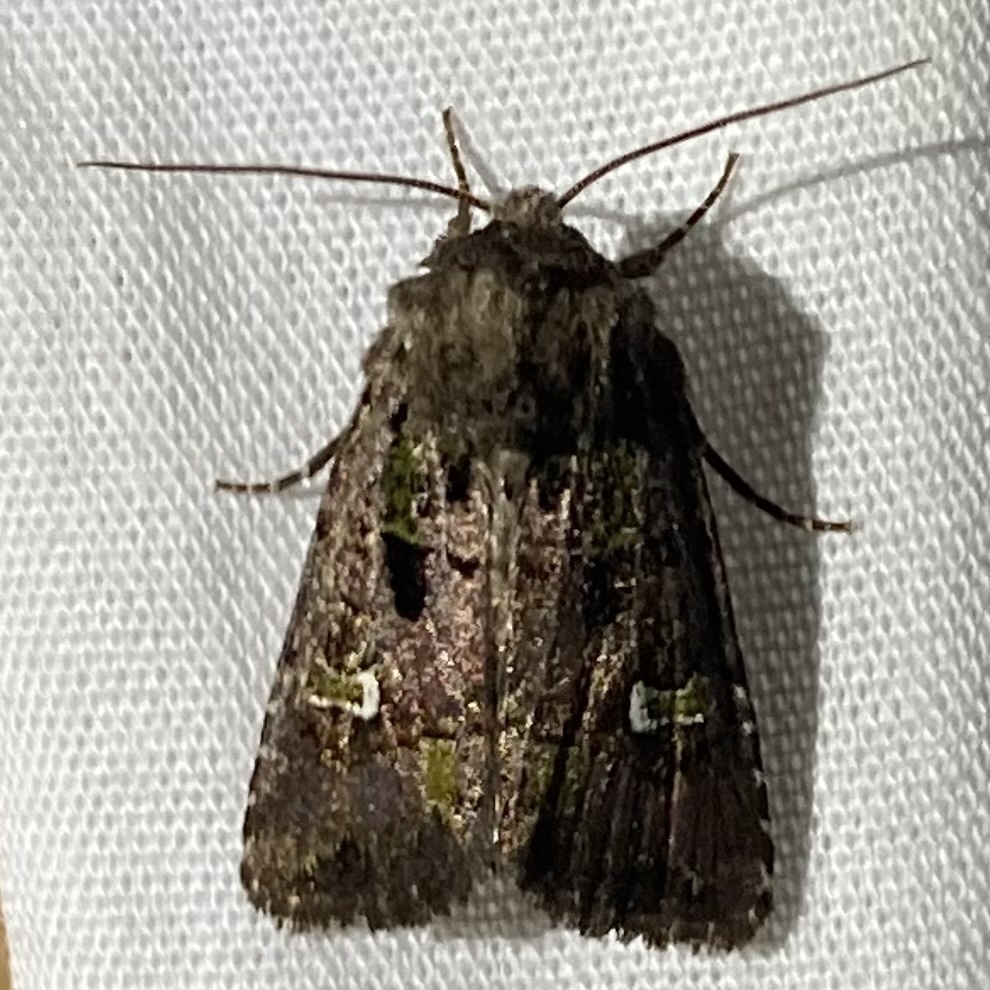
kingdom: Animalia
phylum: Arthropoda
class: Insecta
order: Lepidoptera
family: Noctuidae
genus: Lacinipolia
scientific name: Lacinipolia renigera
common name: Kidney-spotted minor
